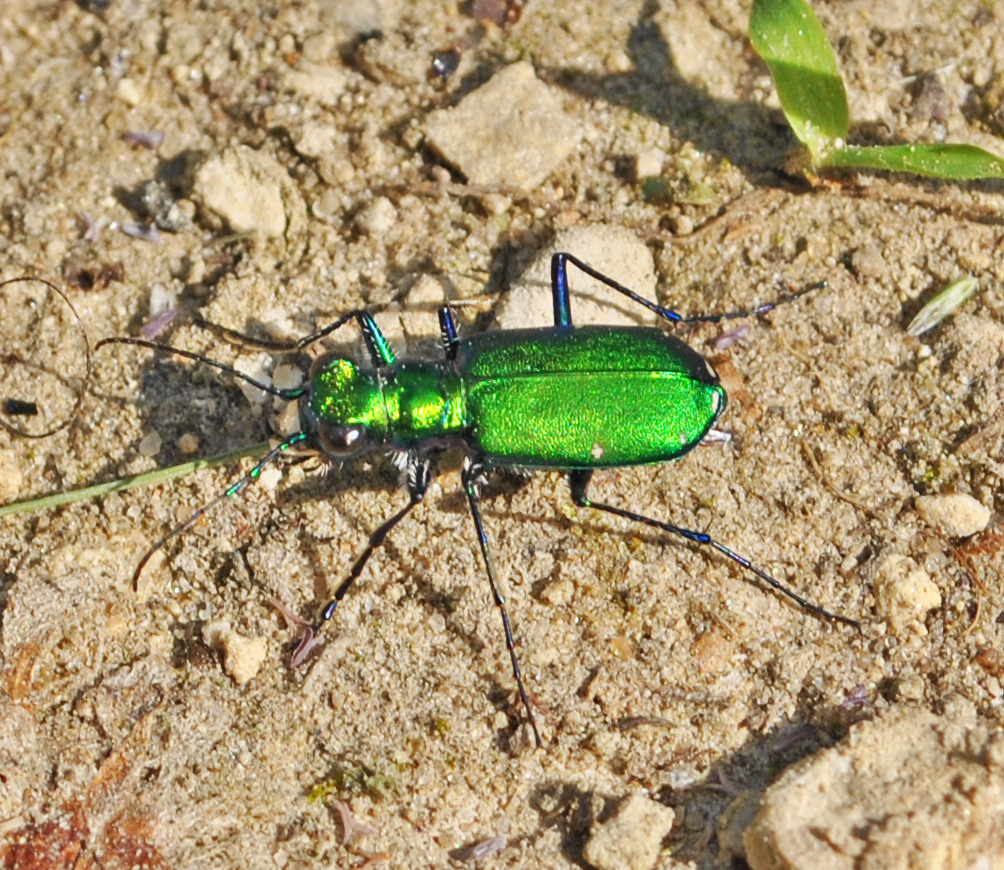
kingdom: Animalia
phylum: Arthropoda
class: Insecta
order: Coleoptera
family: Carabidae
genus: Cicindela
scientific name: Cicindela sexguttata
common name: Six-spotted tiger beetle
